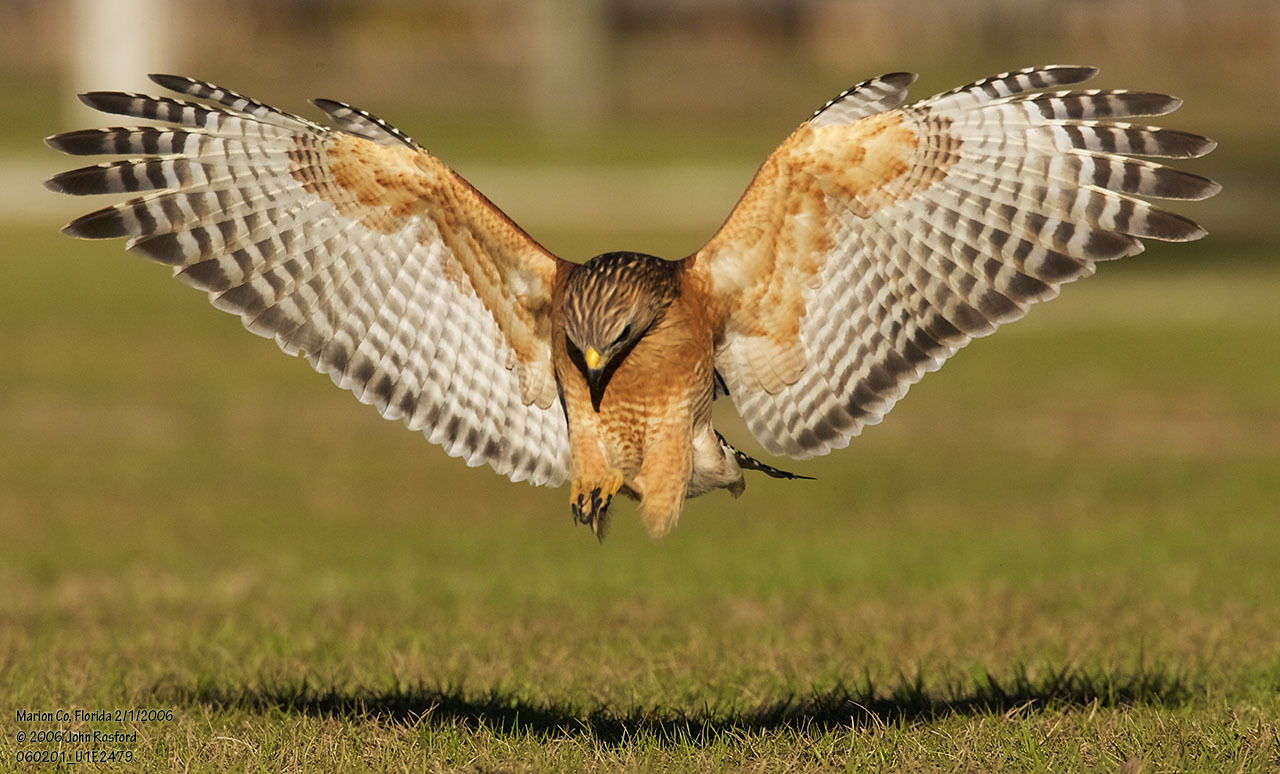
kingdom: Animalia
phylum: Chordata
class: Aves
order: Accipitriformes
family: Accipitridae
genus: Buteo
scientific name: Buteo lineatus
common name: Red-shouldered hawk
